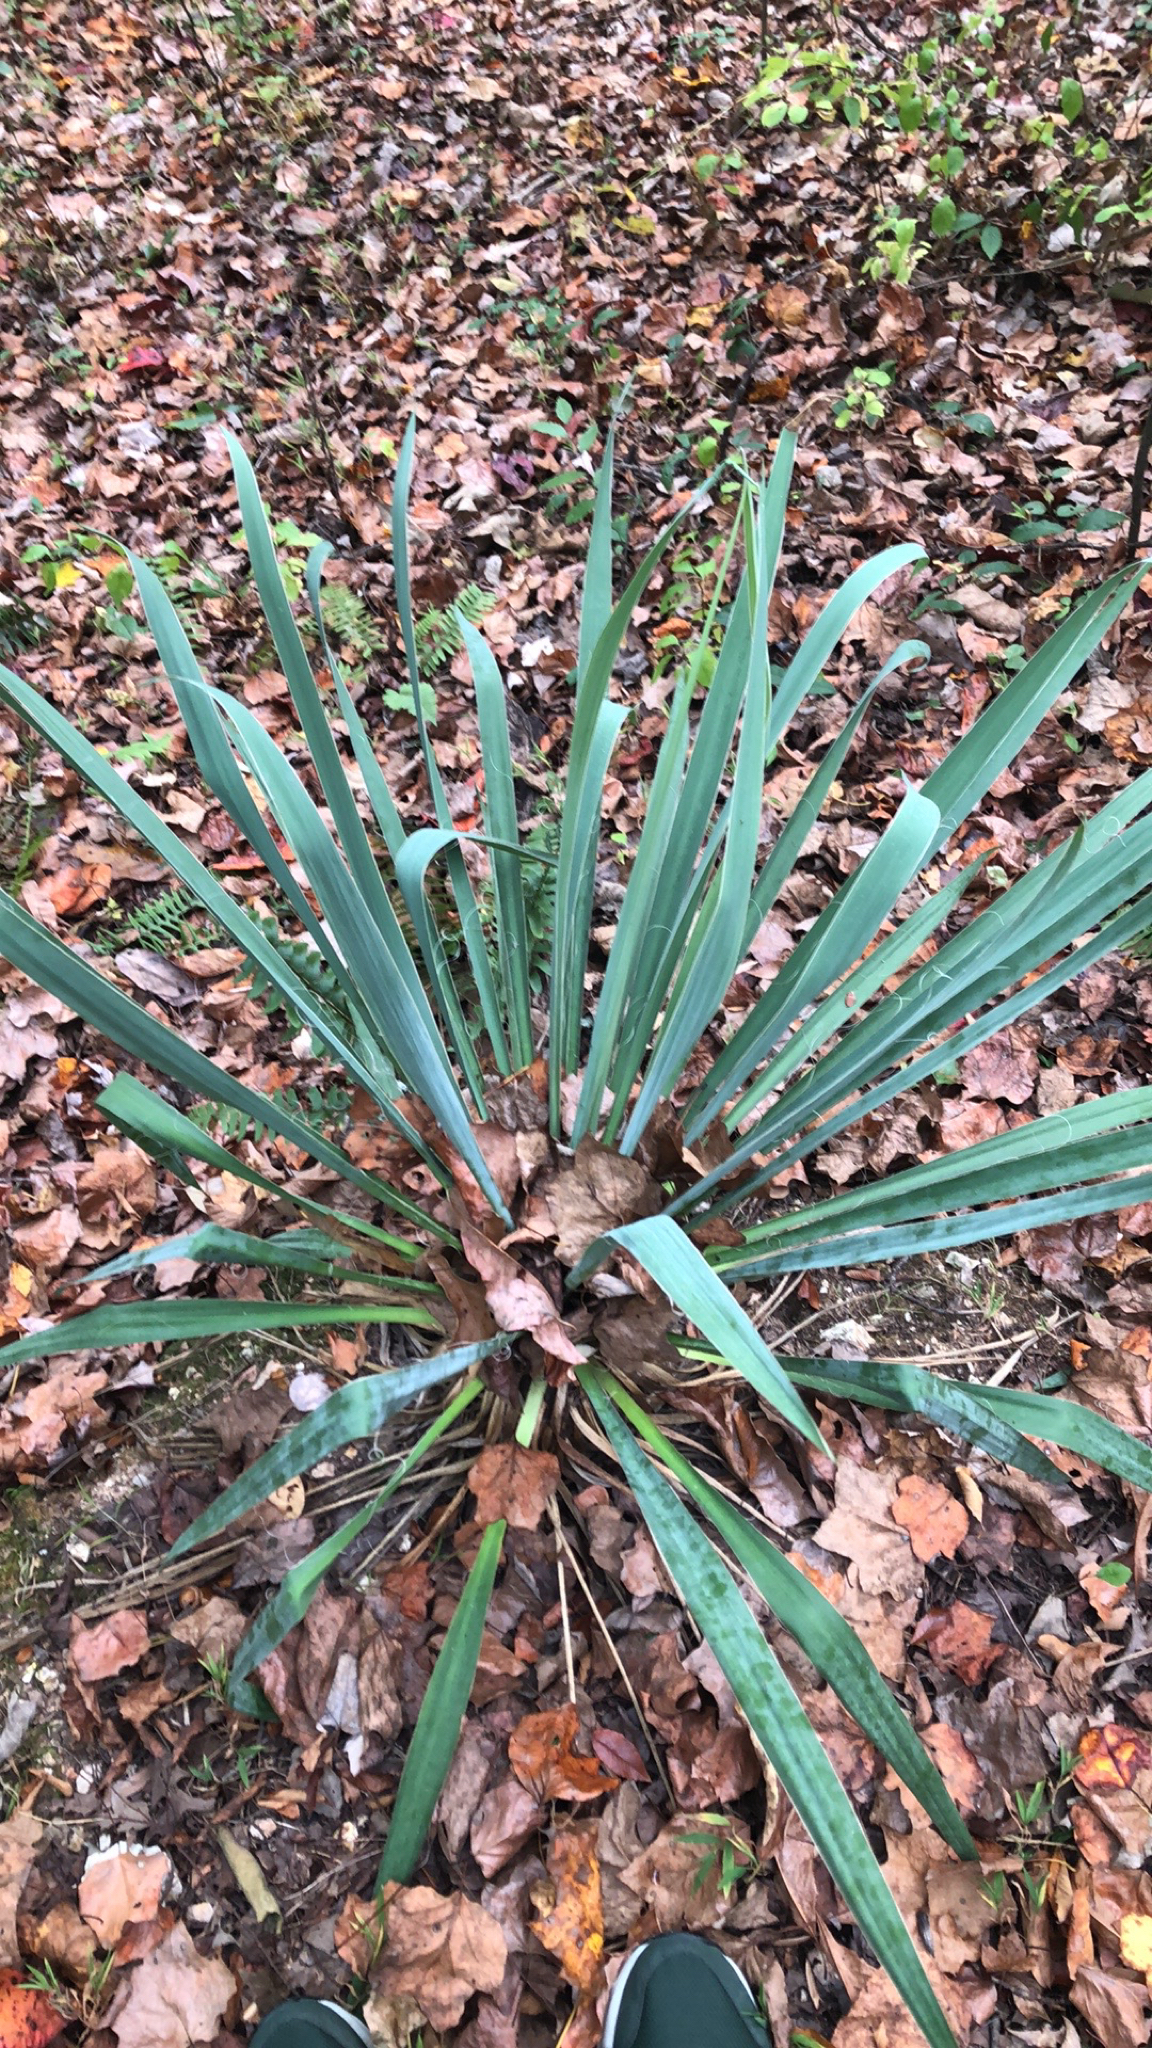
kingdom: Plantae
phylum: Tracheophyta
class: Liliopsida
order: Asparagales
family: Asparagaceae
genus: Yucca
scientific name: Yucca filamentosa
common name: Adam's-needle
